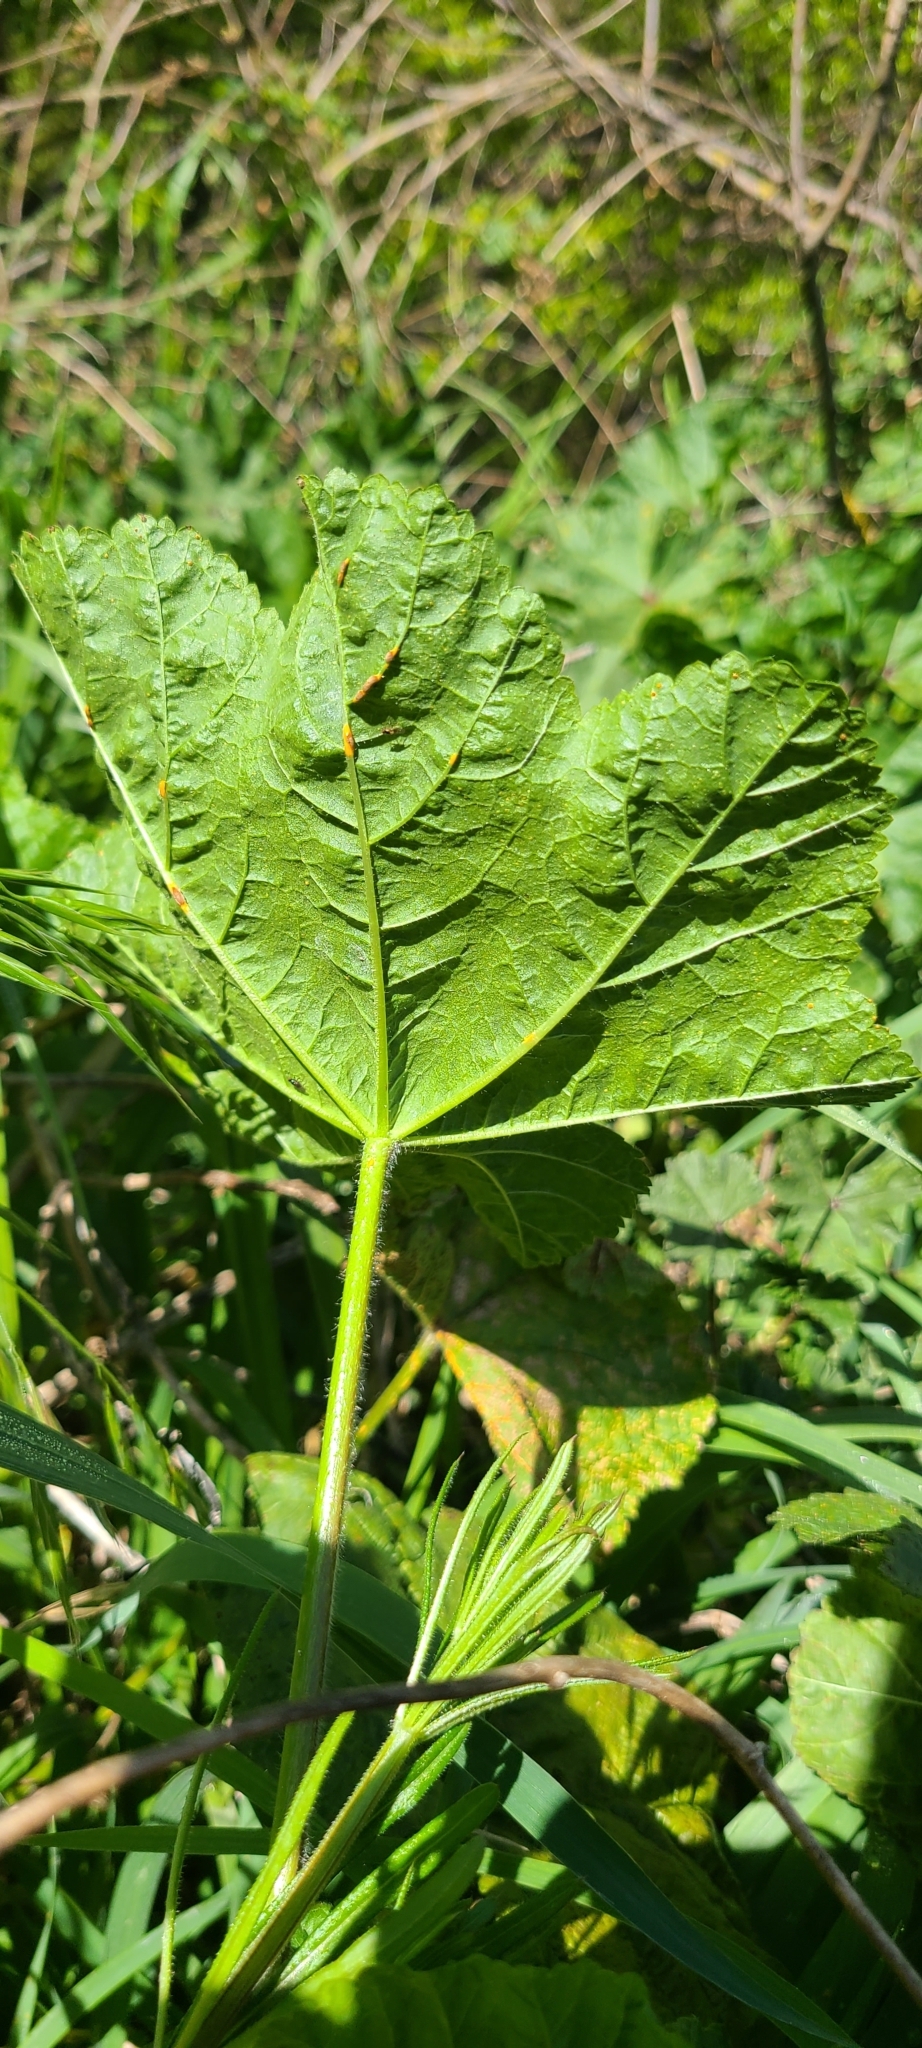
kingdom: Plantae
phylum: Tracheophyta
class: Magnoliopsida
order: Malvales
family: Malvaceae
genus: Malva
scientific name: Malva sylvestris
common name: Common mallow
